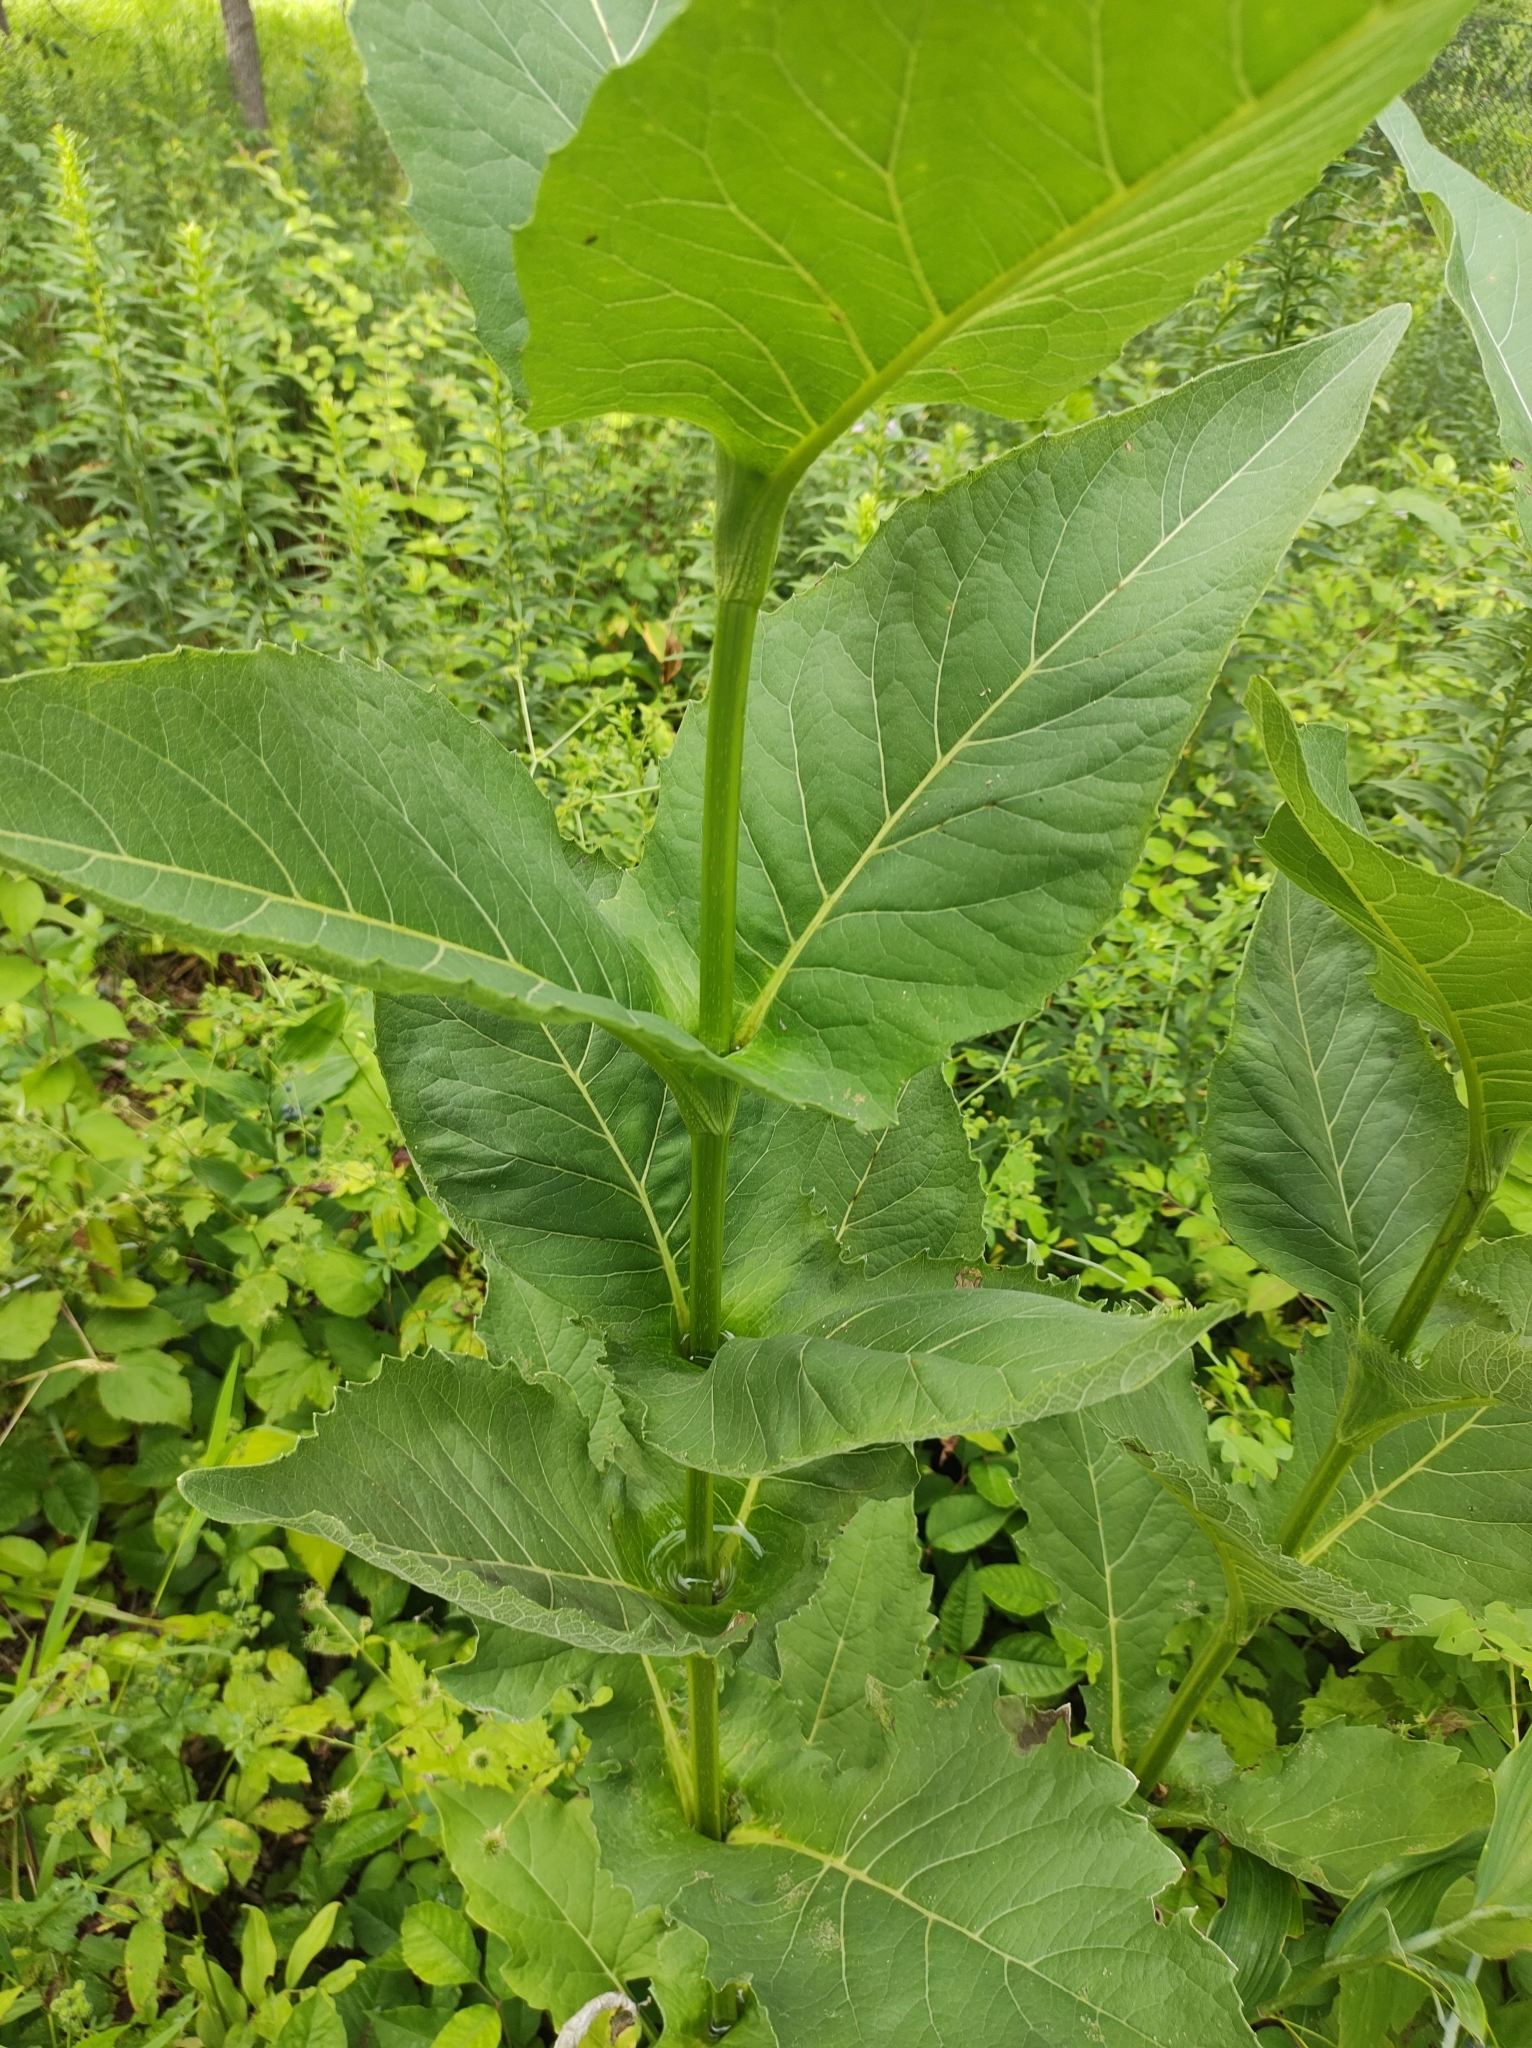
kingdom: Plantae
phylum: Tracheophyta
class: Magnoliopsida
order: Asterales
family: Asteraceae
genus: Silphium
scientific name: Silphium perfoliatum
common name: Cup-plant
